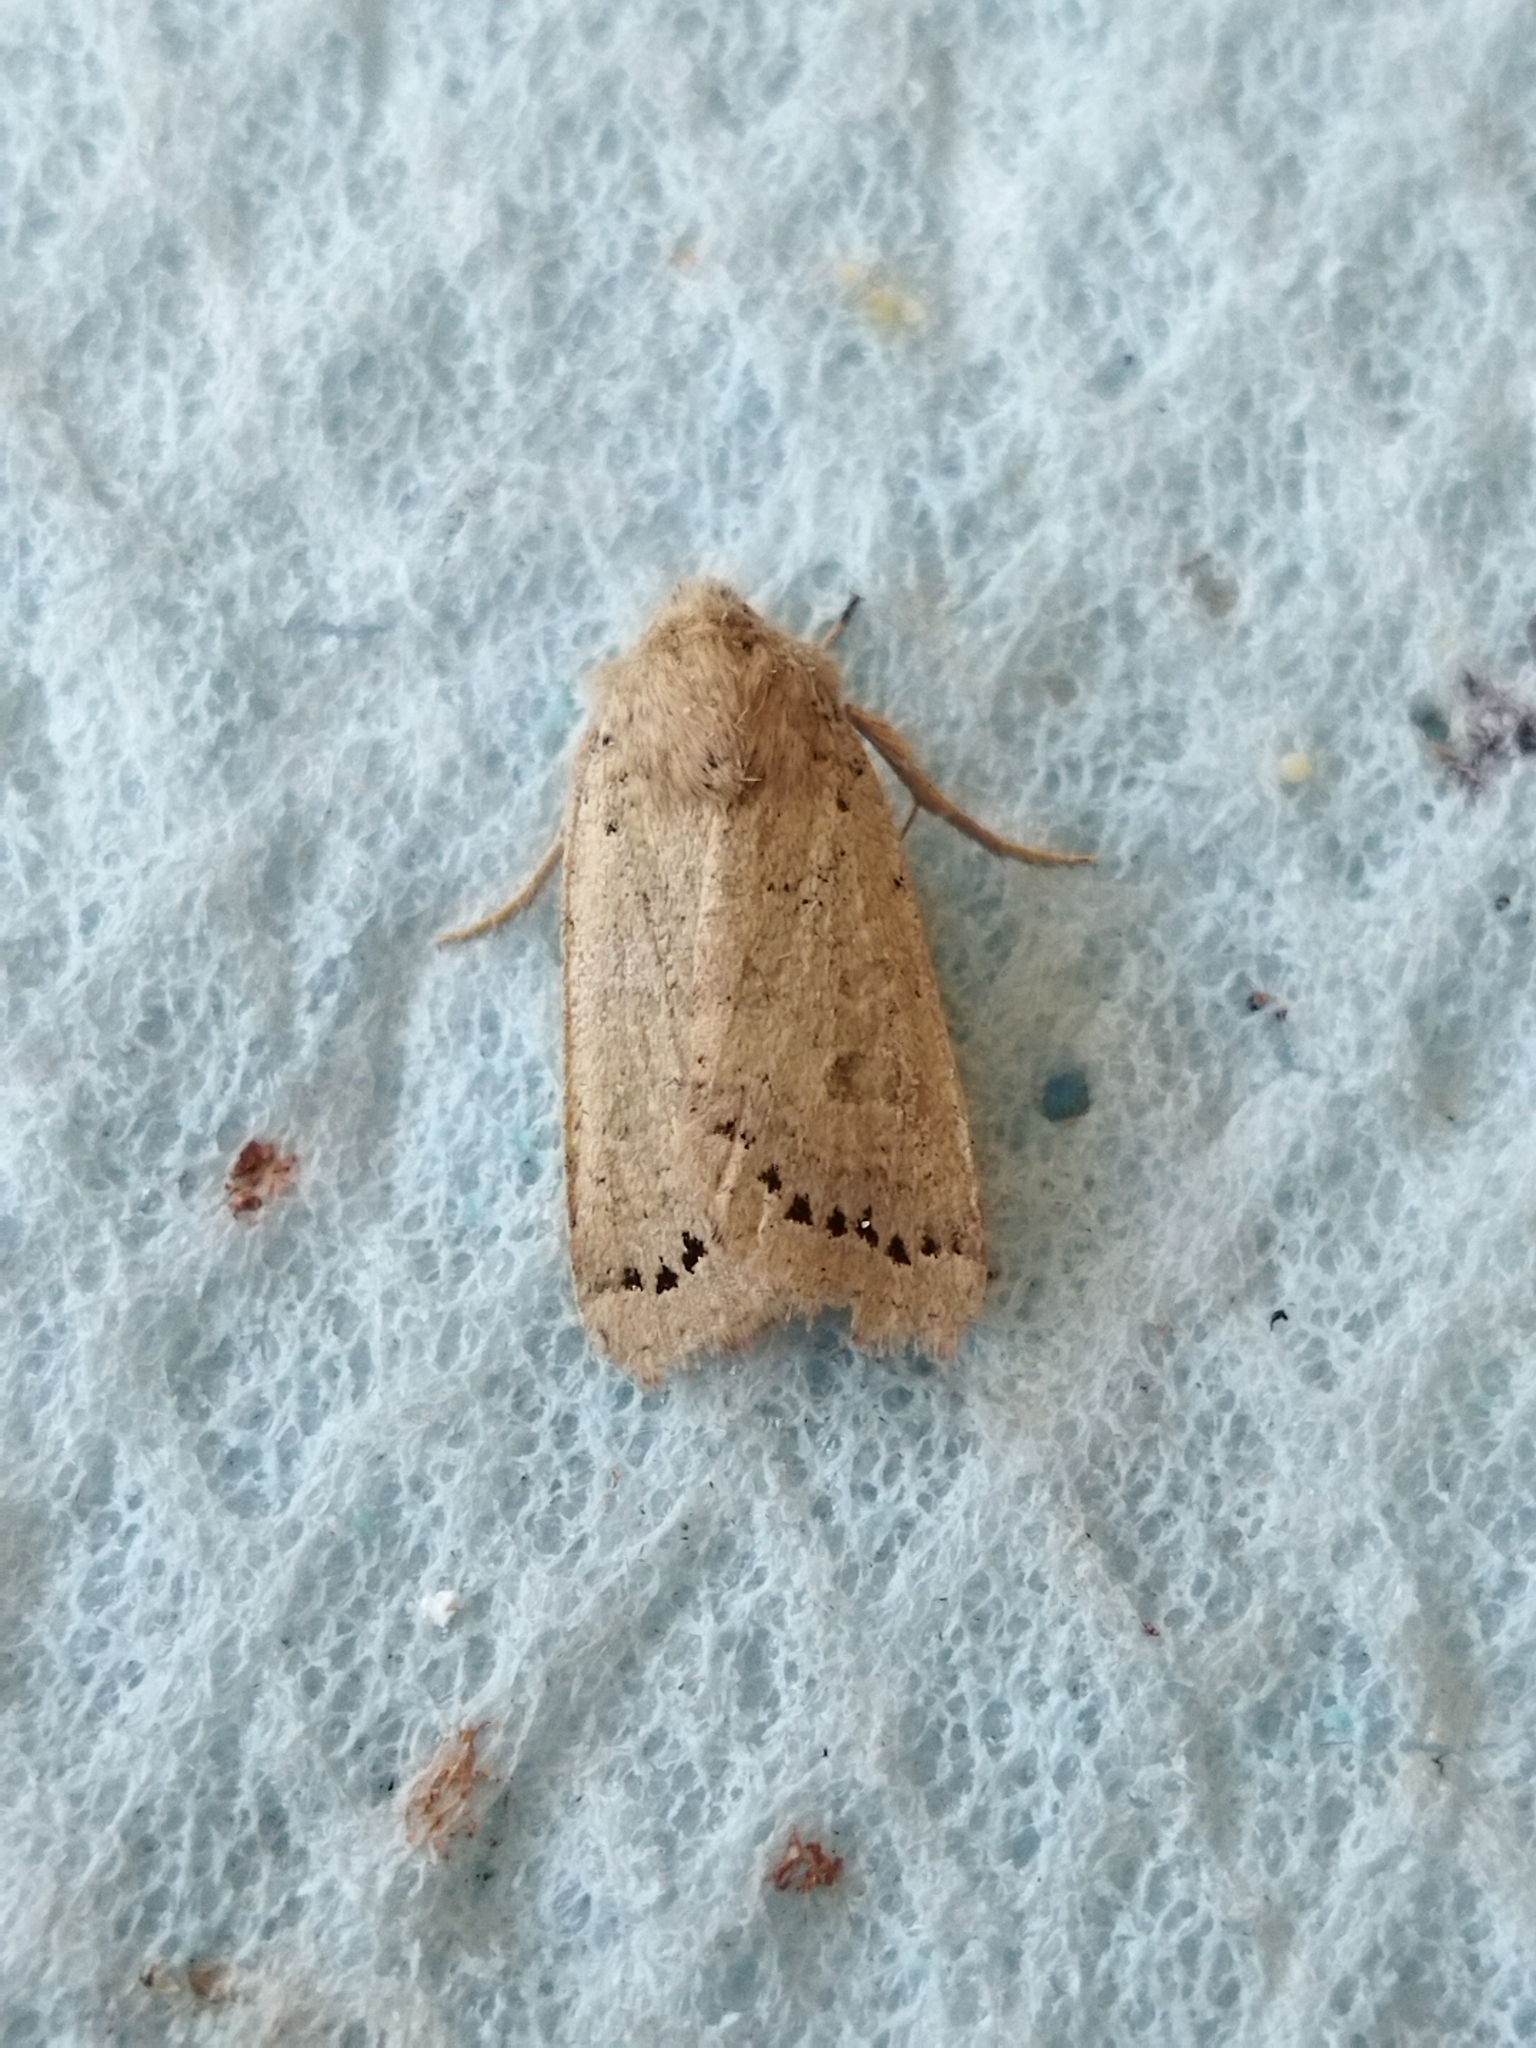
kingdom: Animalia
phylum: Arthropoda
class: Insecta
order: Lepidoptera
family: Noctuidae
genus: Agrochola
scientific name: Agrochola osthelderi
